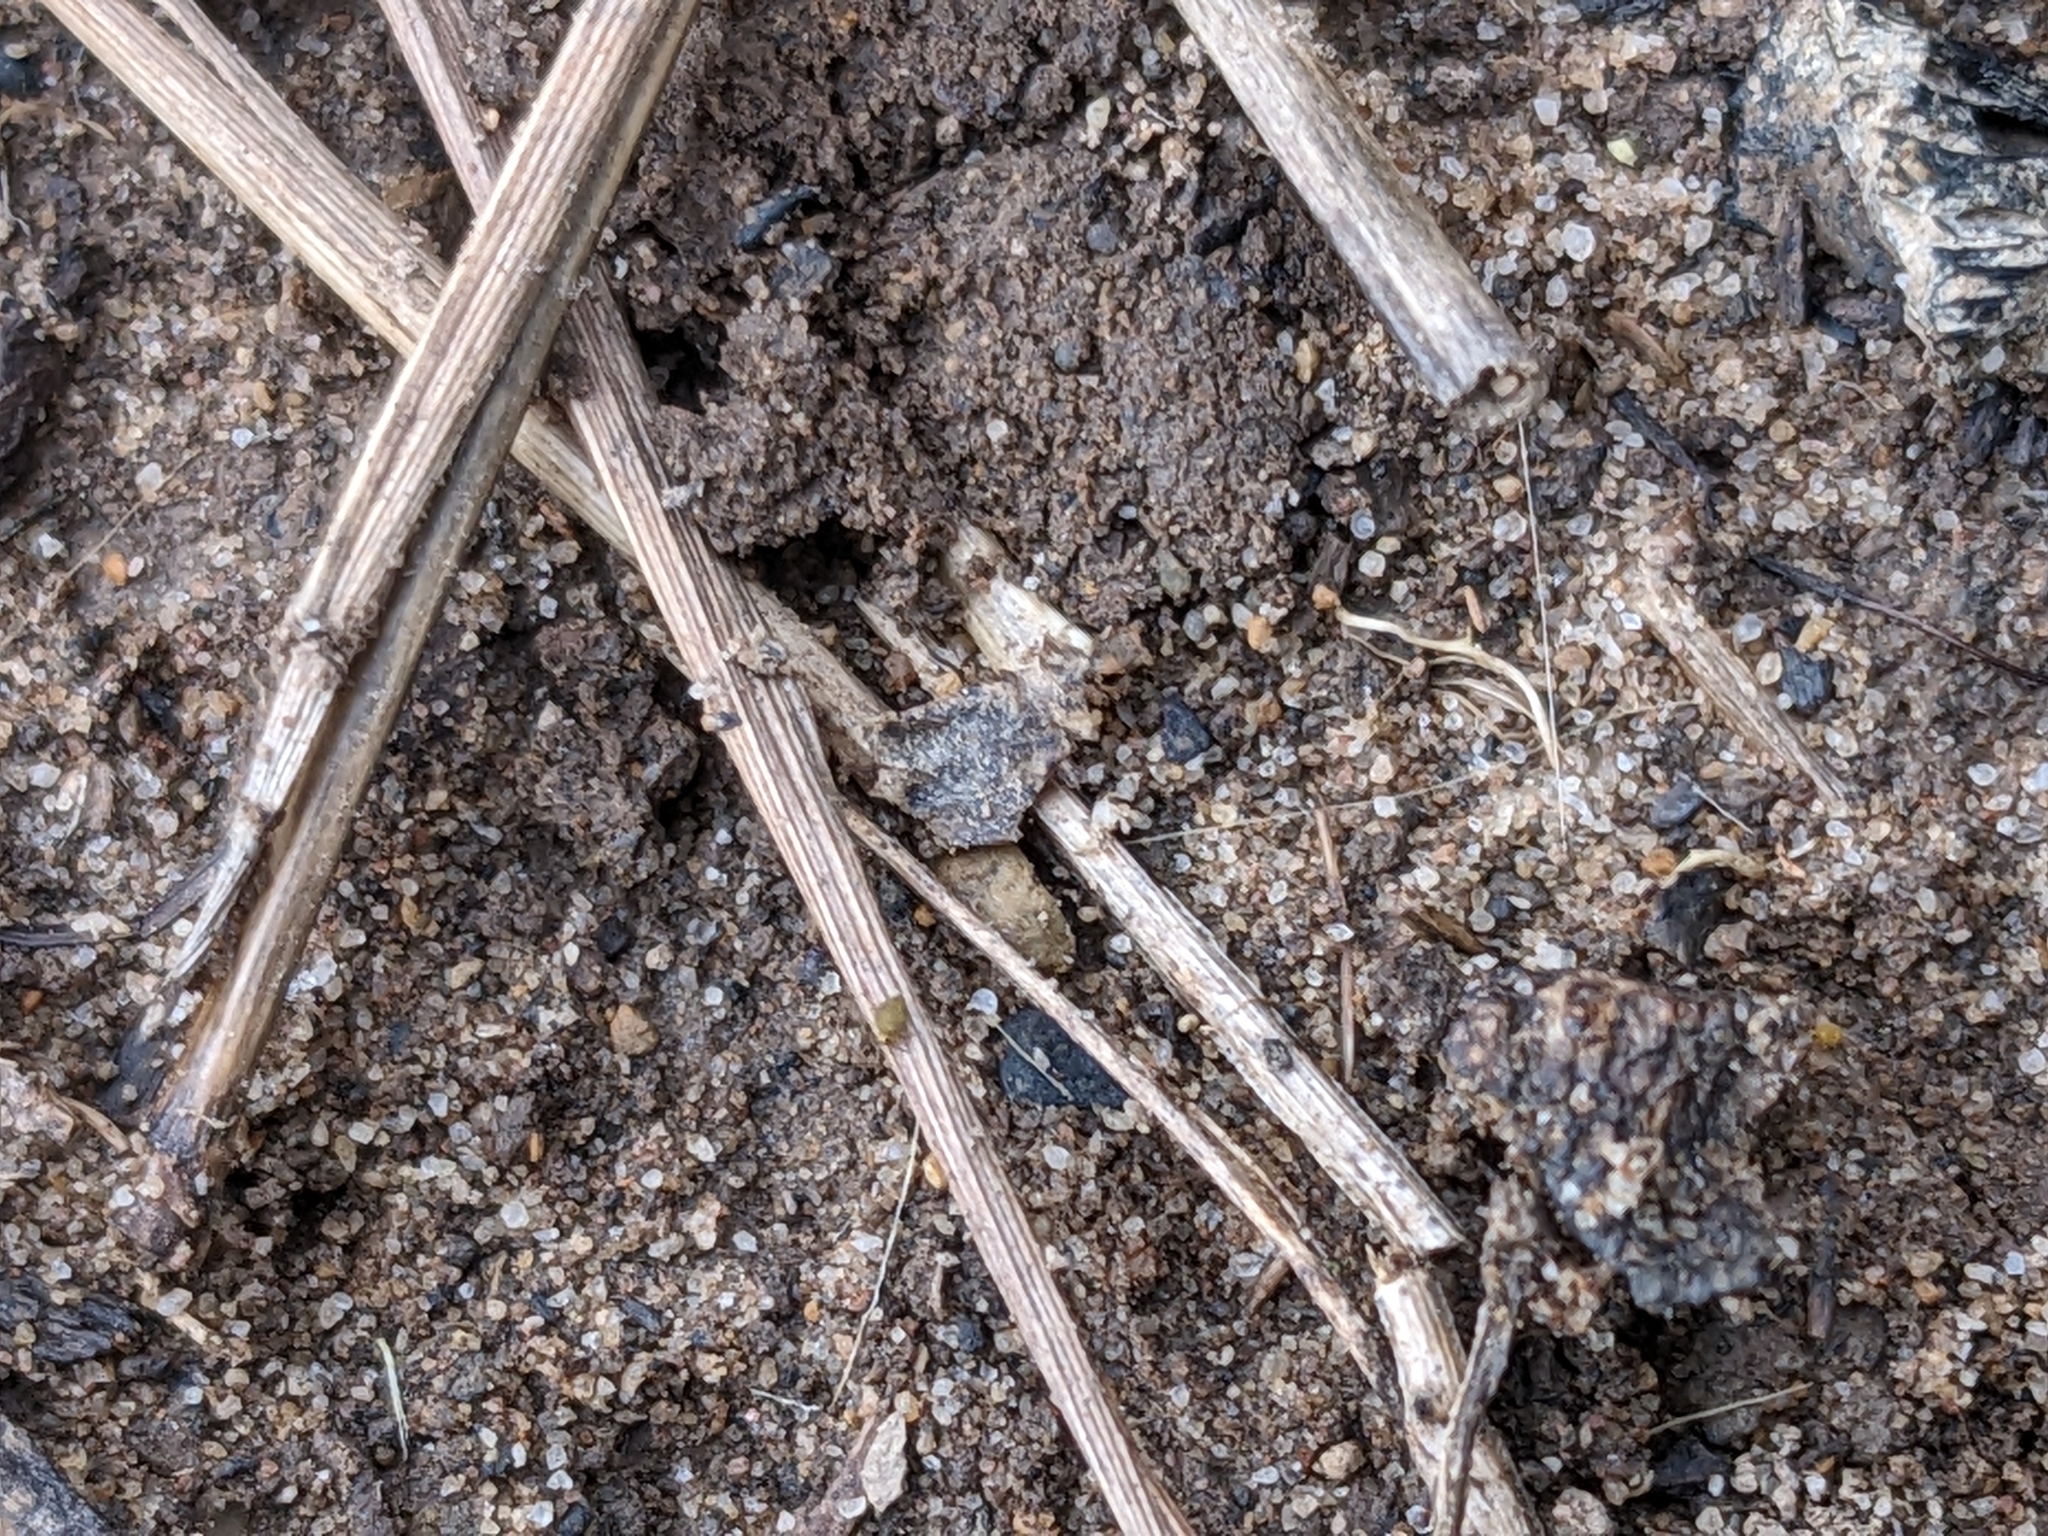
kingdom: Animalia
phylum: Arthropoda
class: Insecta
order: Hemiptera
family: Gelastocoridae
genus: Gelastocoris
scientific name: Gelastocoris oculatus
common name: Toad bug
